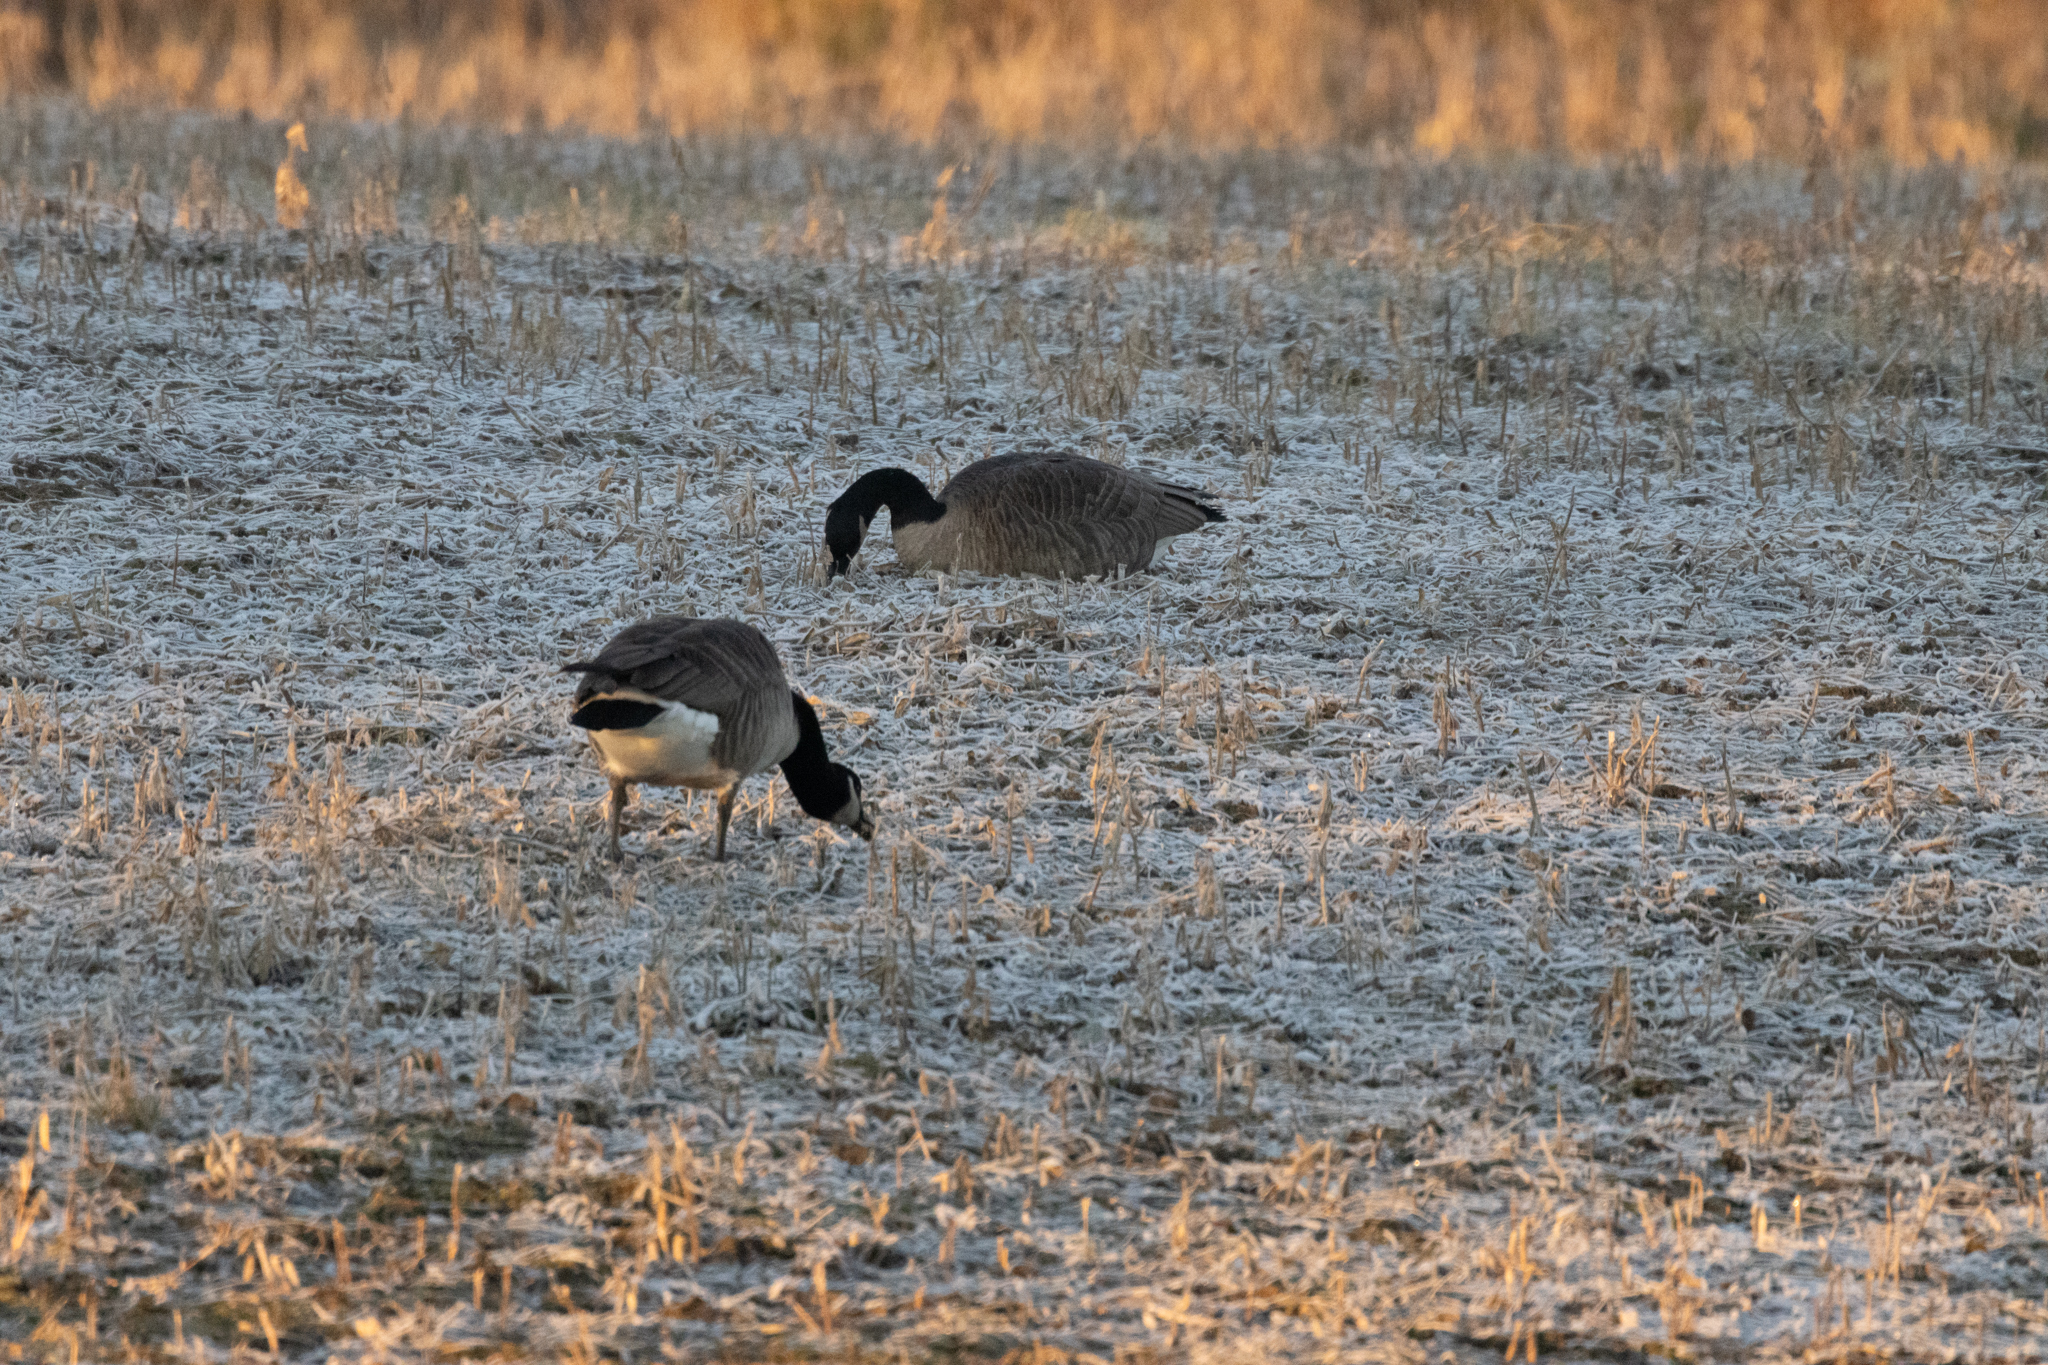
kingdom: Animalia
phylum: Chordata
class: Aves
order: Anseriformes
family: Anatidae
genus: Branta
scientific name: Branta canadensis
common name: Canada goose
